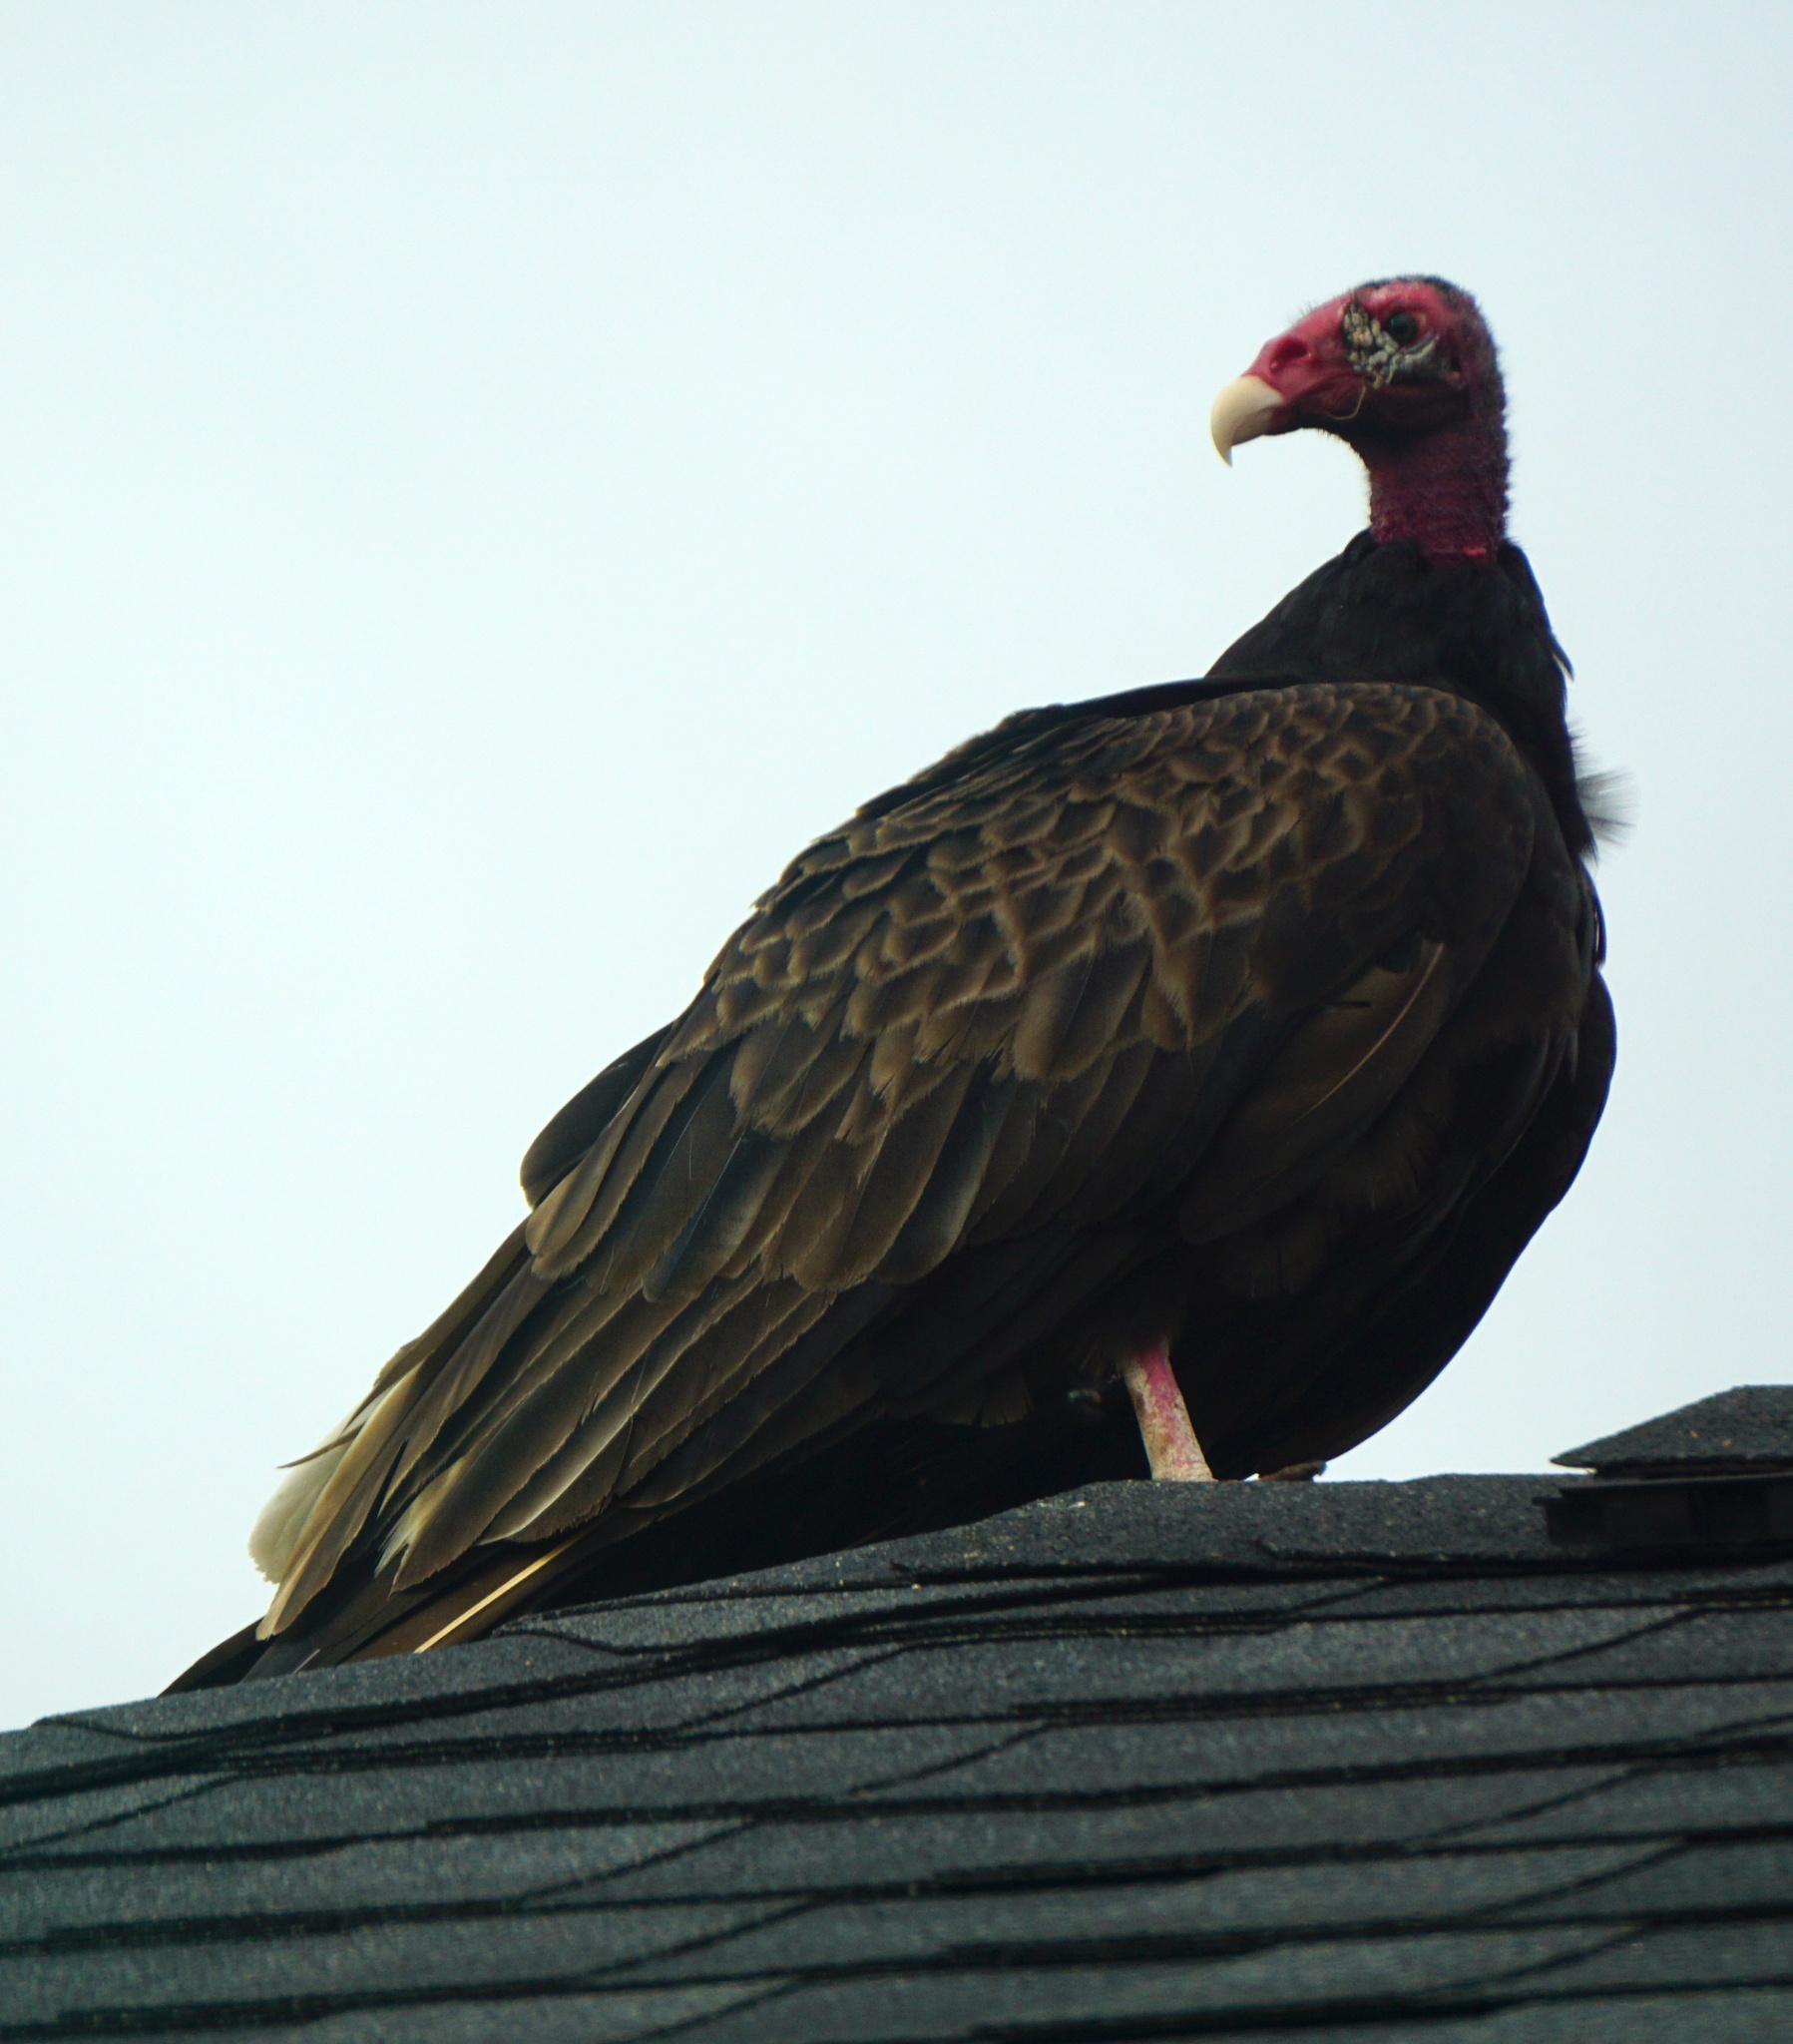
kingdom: Animalia
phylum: Chordata
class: Aves
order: Accipitriformes
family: Cathartidae
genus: Cathartes
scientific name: Cathartes aura
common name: Turkey vulture
